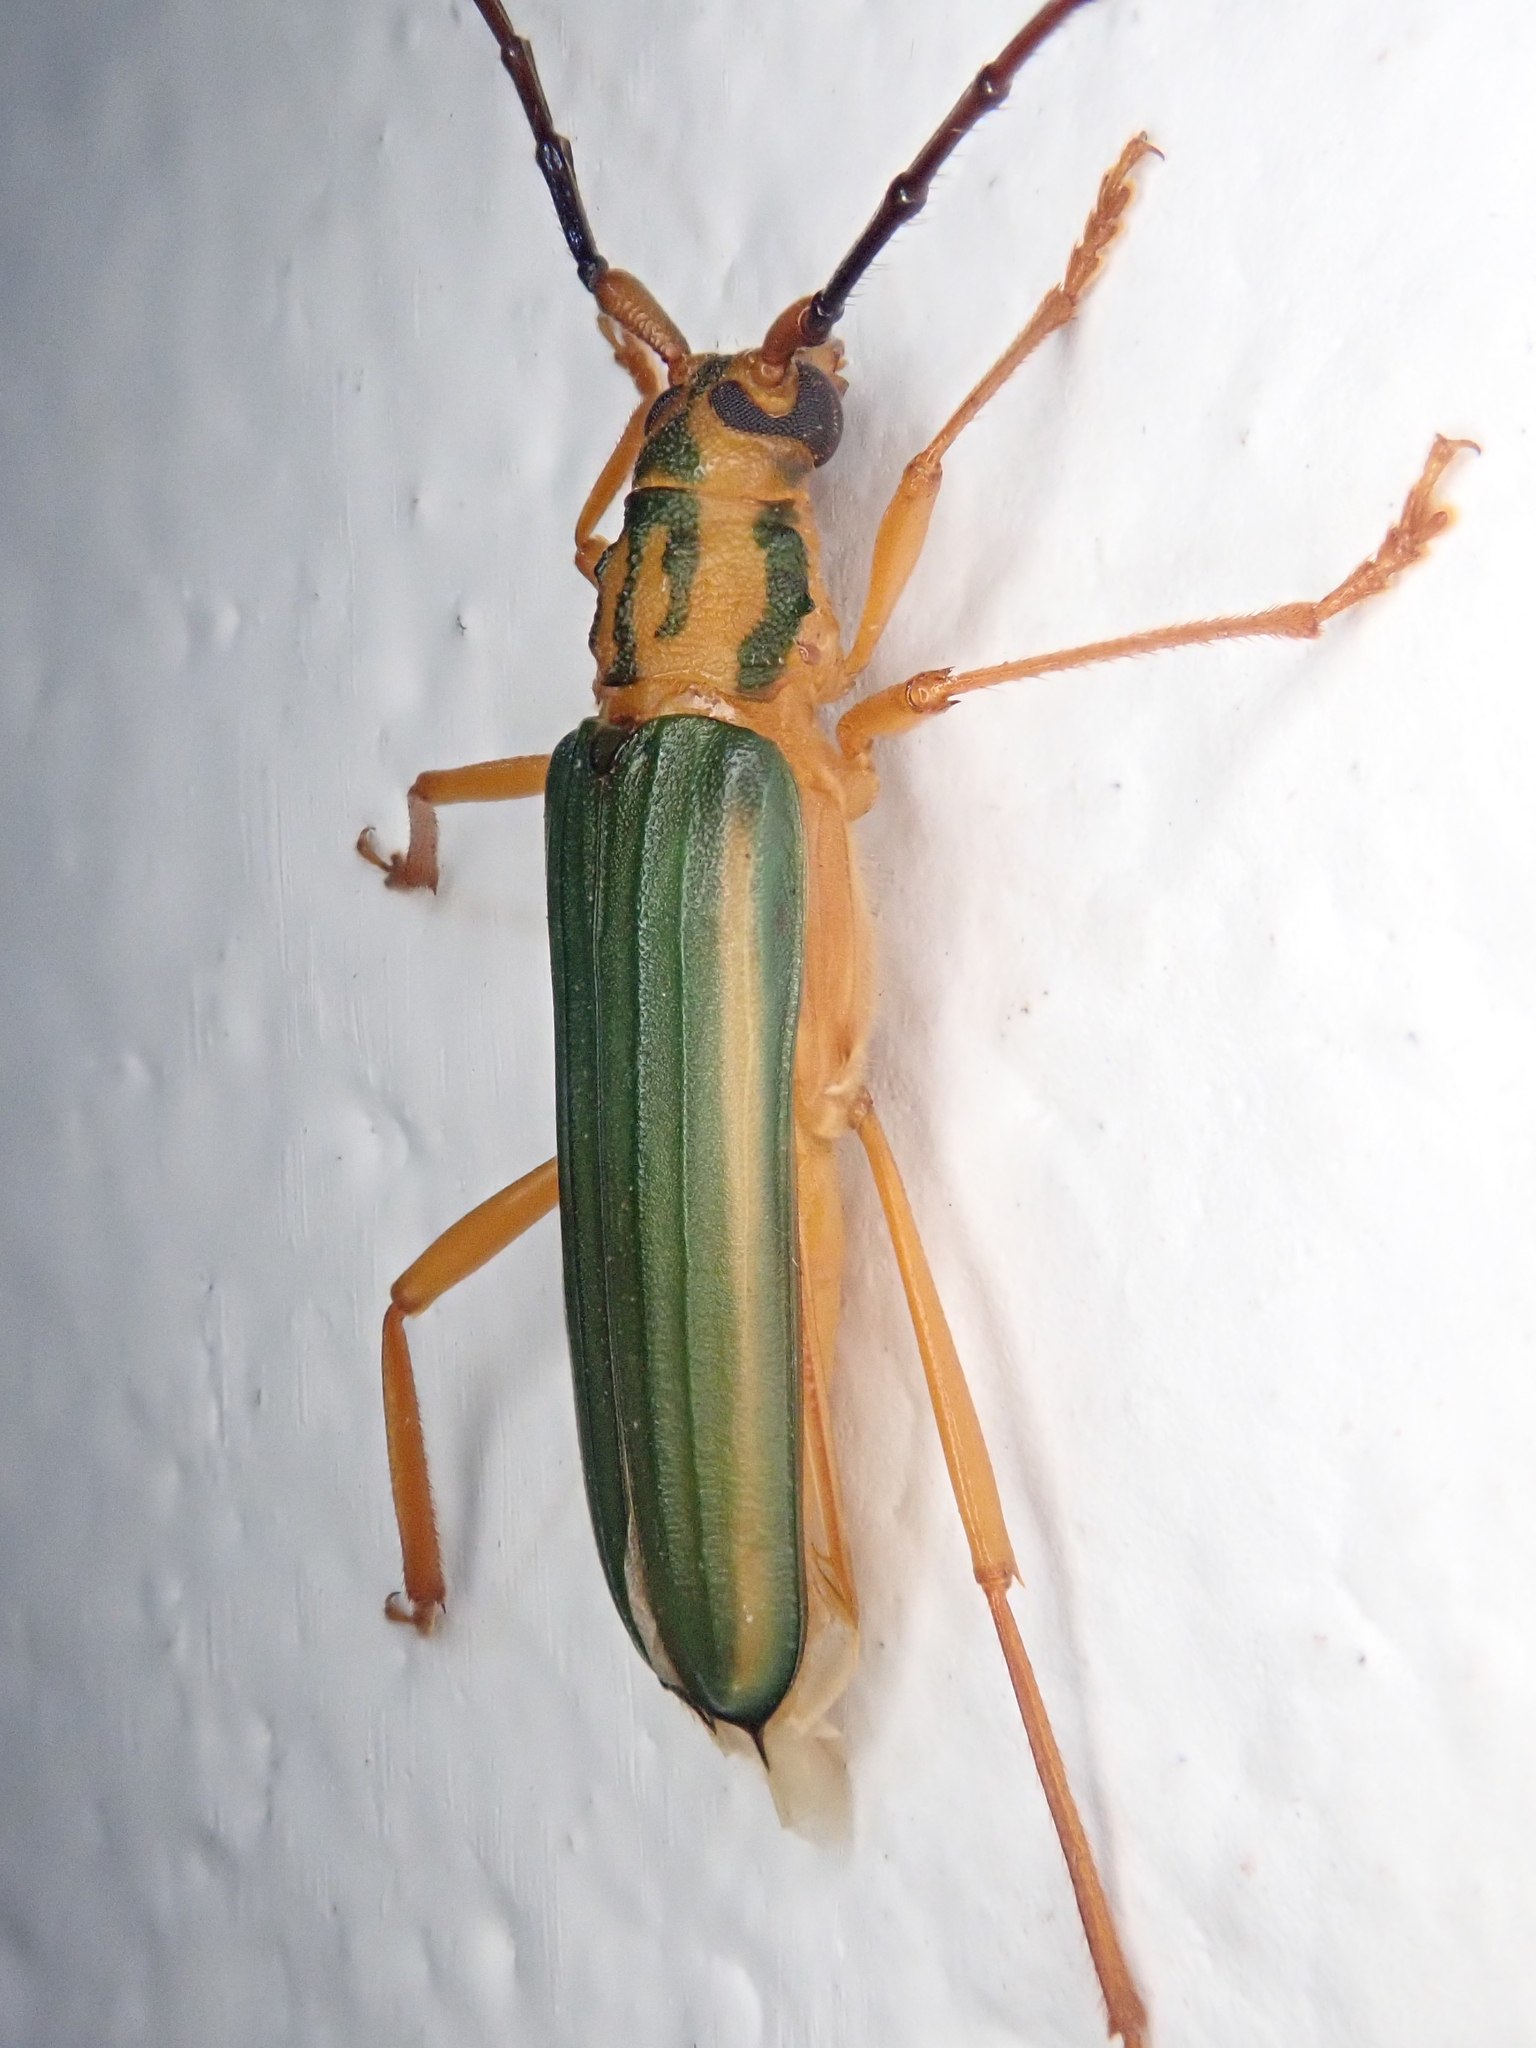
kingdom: Animalia
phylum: Arthropoda
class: Insecta
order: Coleoptera
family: Cerambycidae
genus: Chlorida
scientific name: Chlorida festiva
